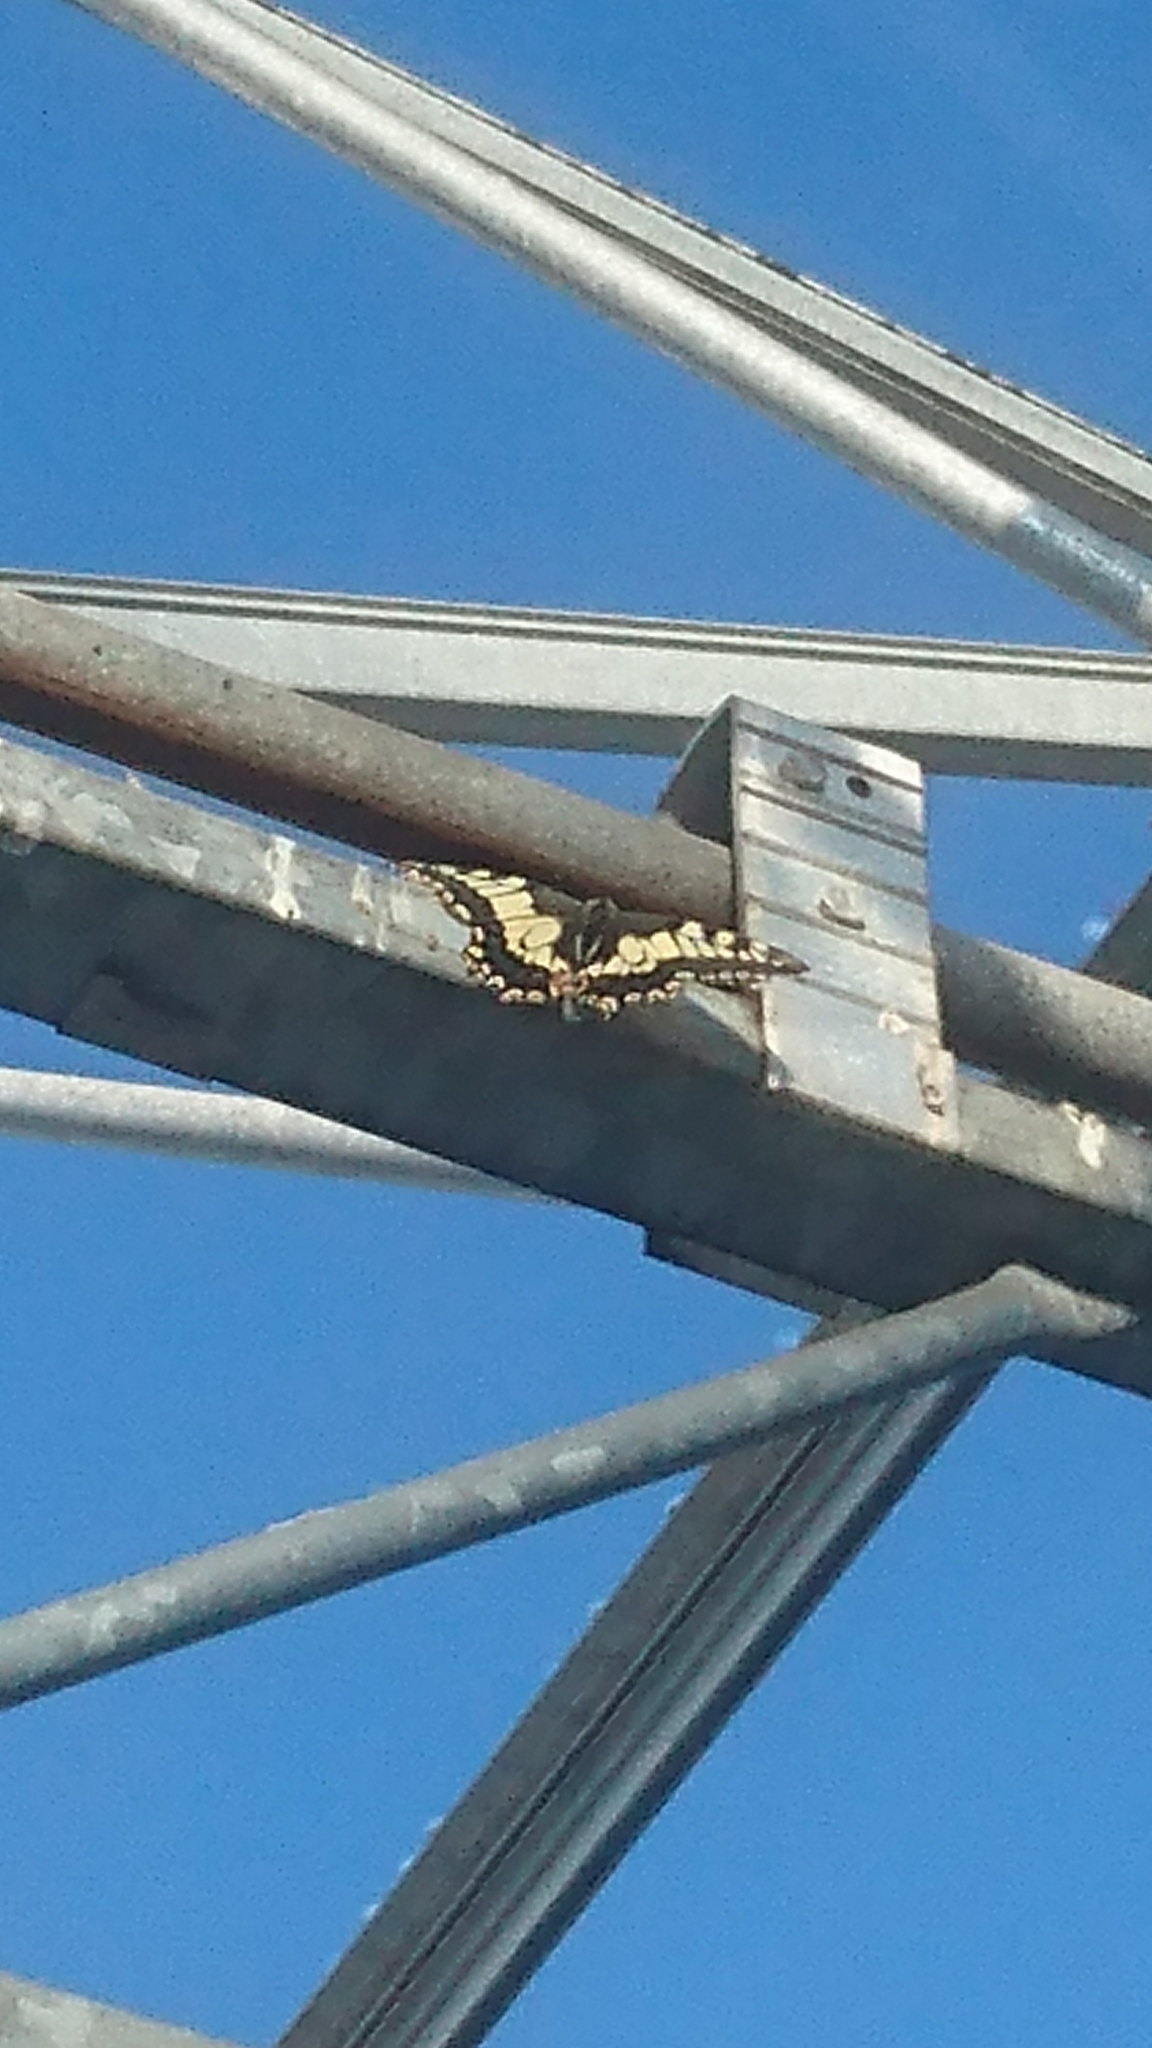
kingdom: Animalia
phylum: Arthropoda
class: Insecta
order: Lepidoptera
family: Papilionidae
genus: Papilio
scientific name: Papilio machaon
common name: Swallowtail
